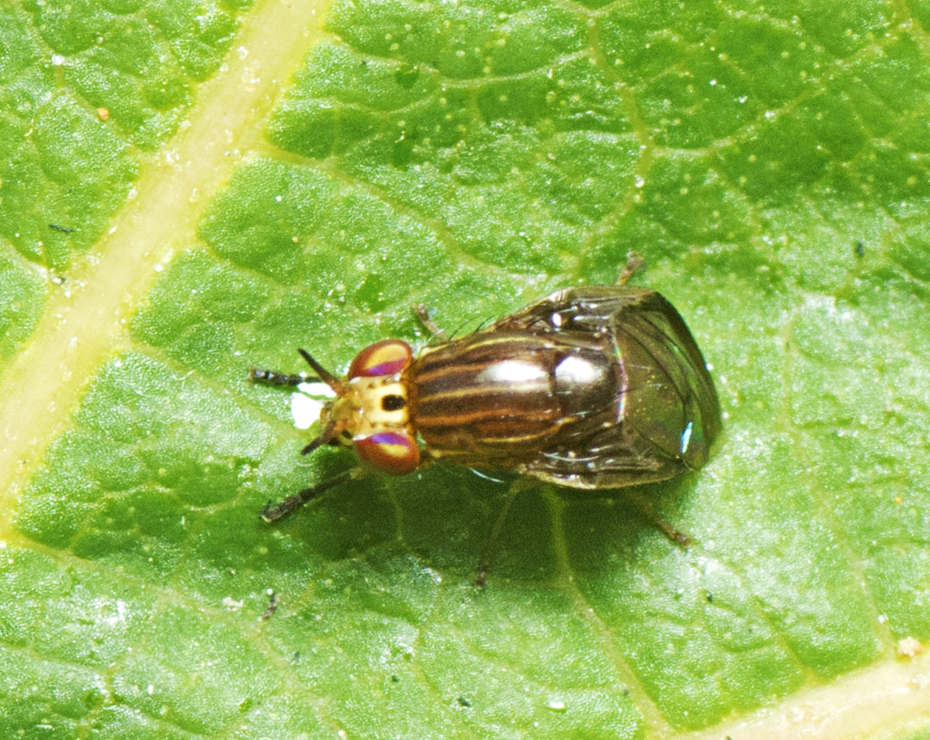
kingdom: Animalia
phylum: Arthropoda
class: Insecta
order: Diptera
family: Lauxaniidae
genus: Steganopsis
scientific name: Steganopsis melanogaster
